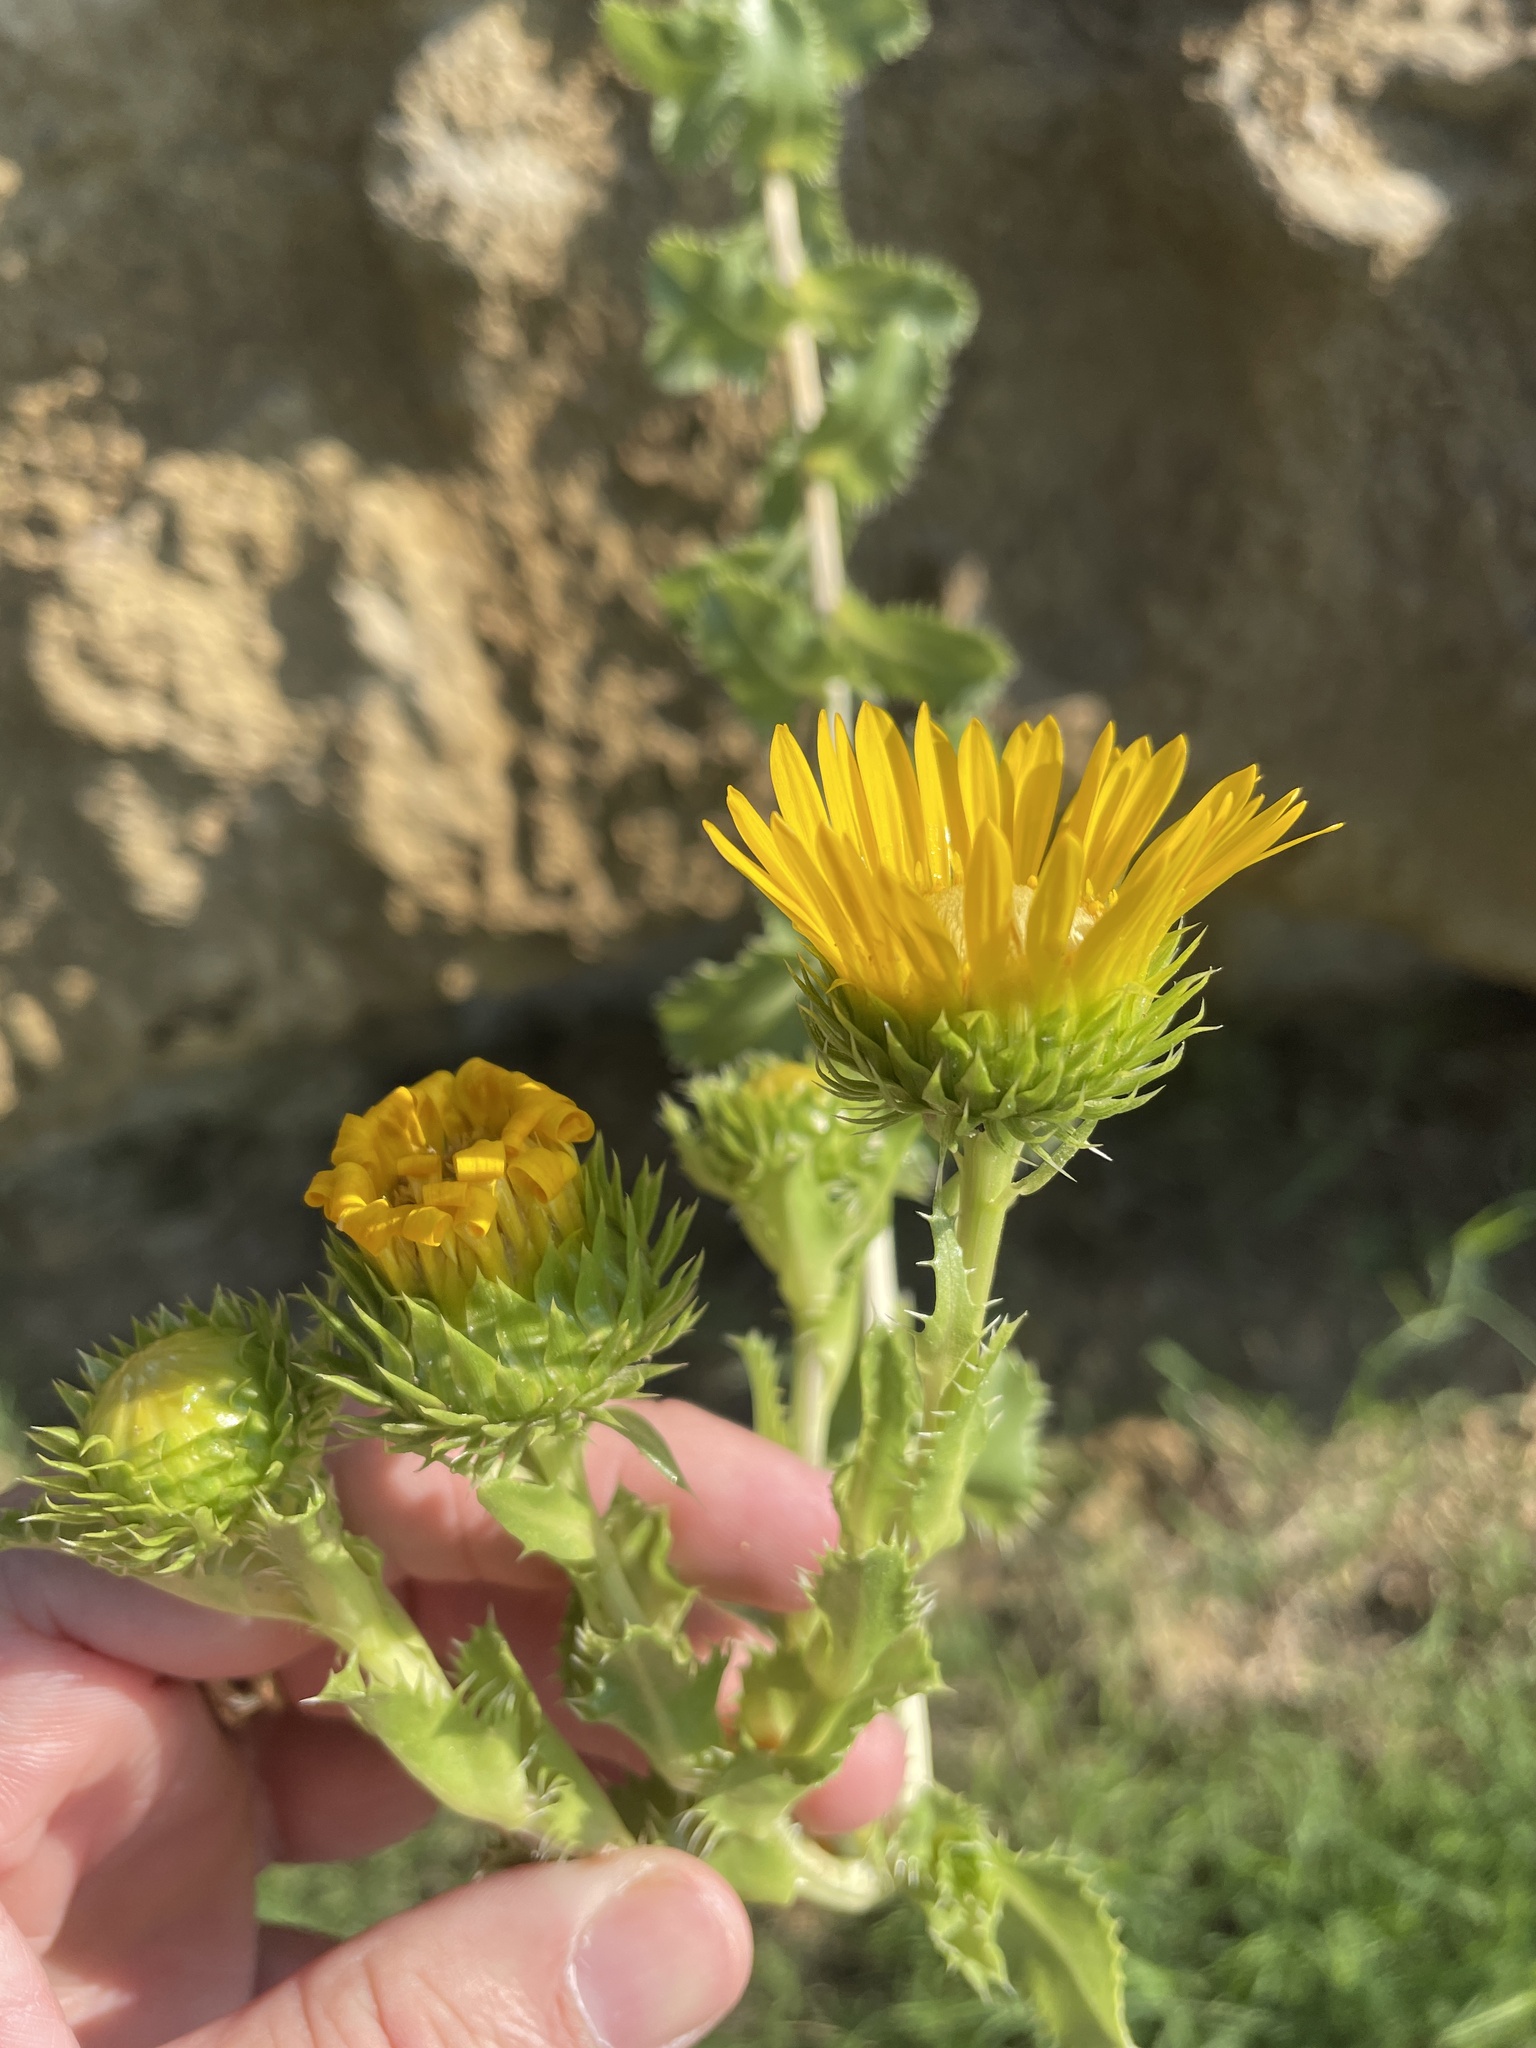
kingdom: Plantae
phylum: Tracheophyta
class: Magnoliopsida
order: Asterales
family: Asteraceae
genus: Grindelia
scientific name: Grindelia ciliata
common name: Goldenweed
